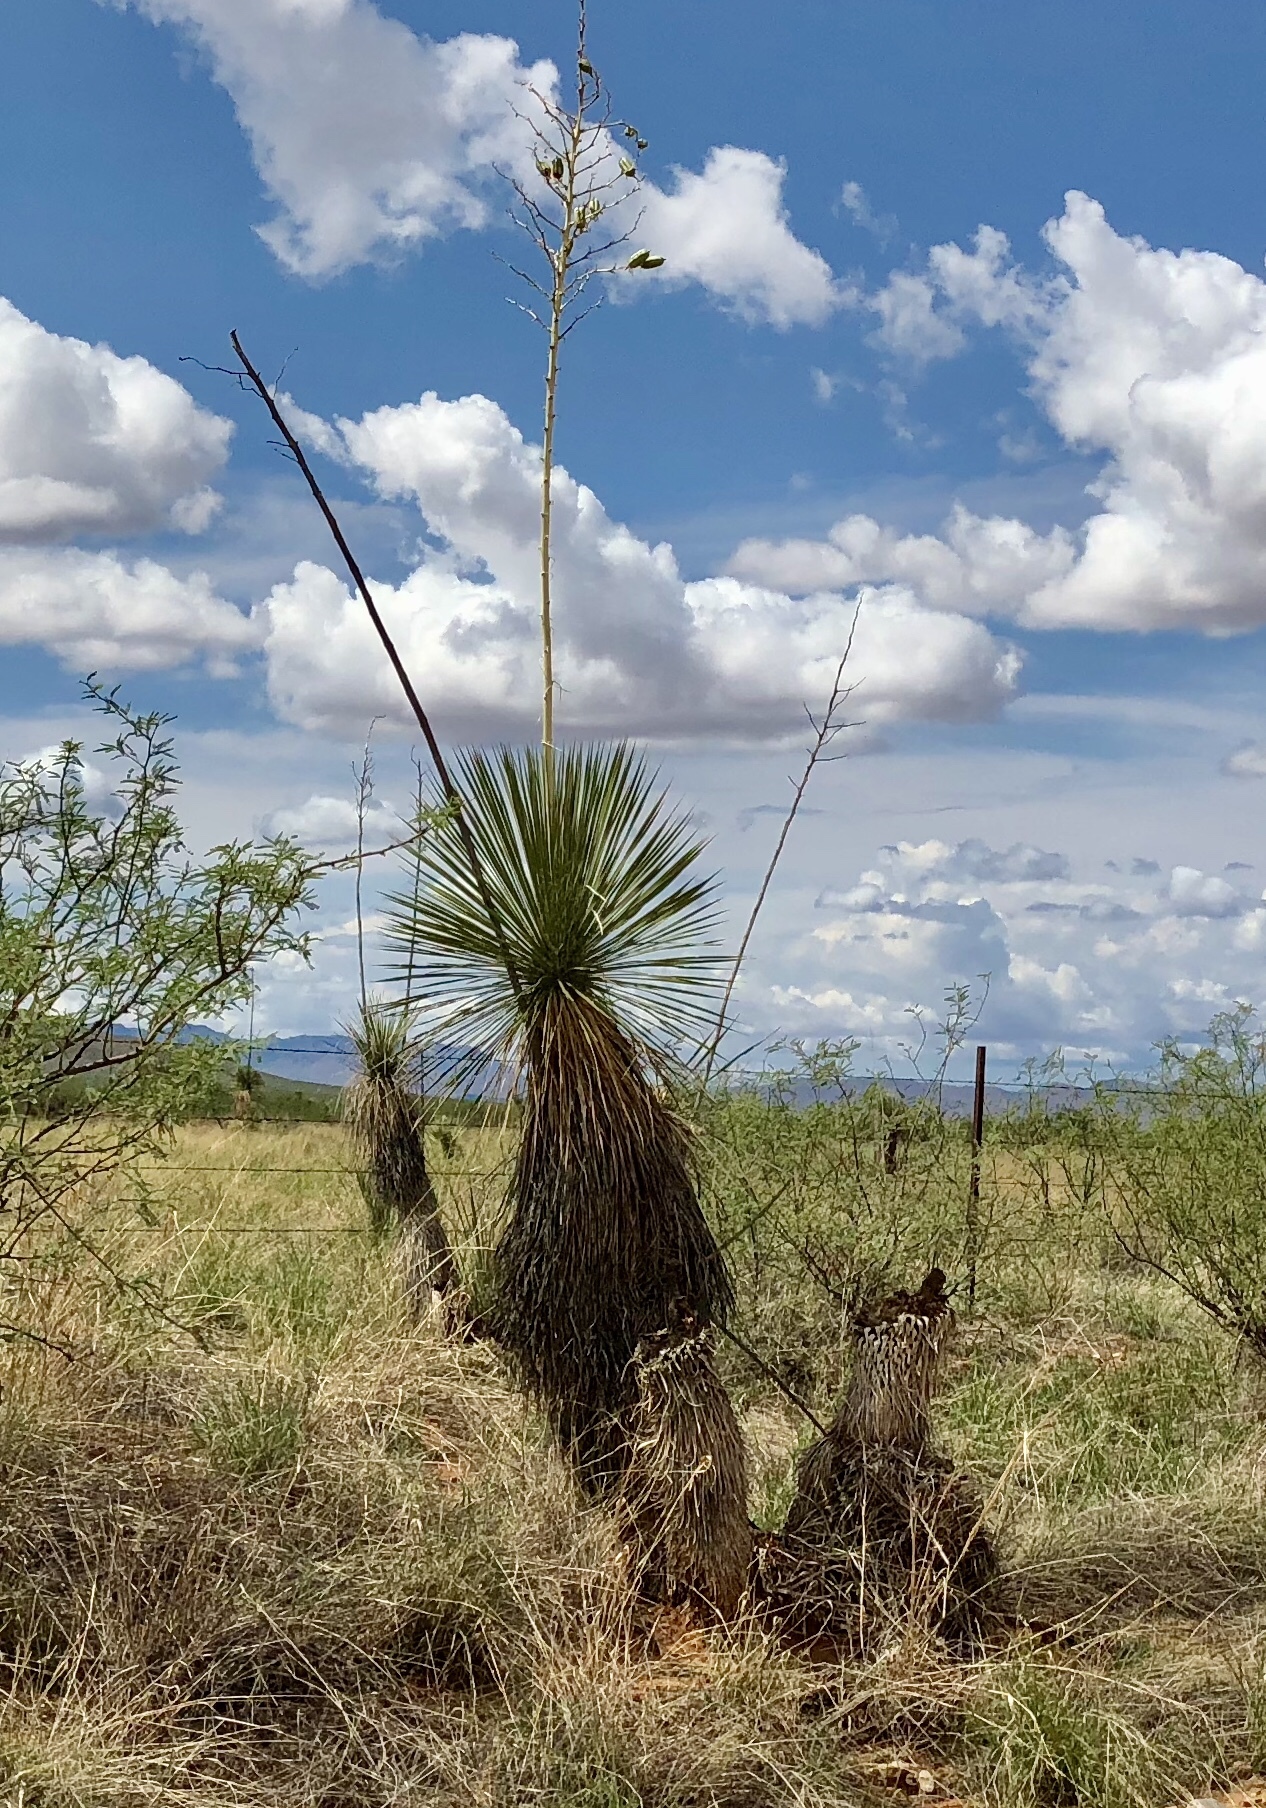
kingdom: Plantae
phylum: Tracheophyta
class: Liliopsida
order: Asparagales
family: Asparagaceae
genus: Yucca
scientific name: Yucca elata
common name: Palmella
